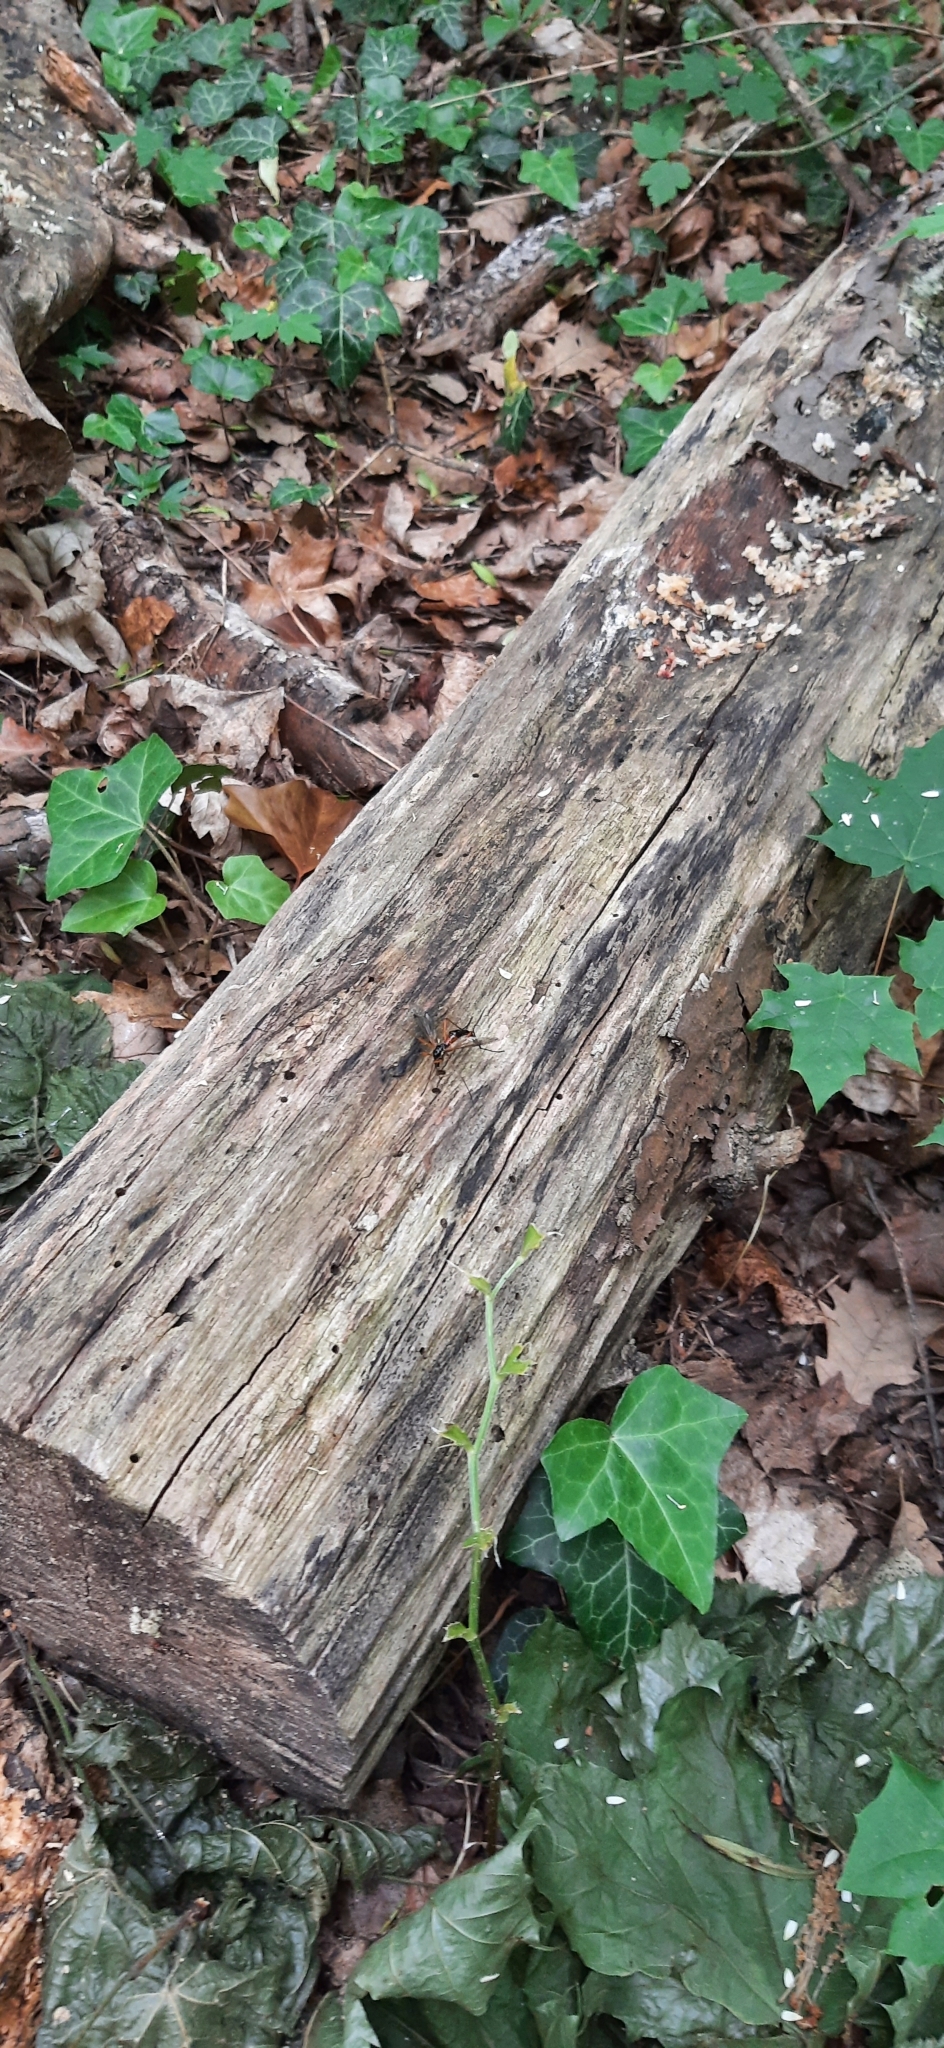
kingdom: Animalia
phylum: Arthropoda
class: Insecta
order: Diptera
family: Tipulidae
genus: Tanyptera
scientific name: Tanyptera atrata
